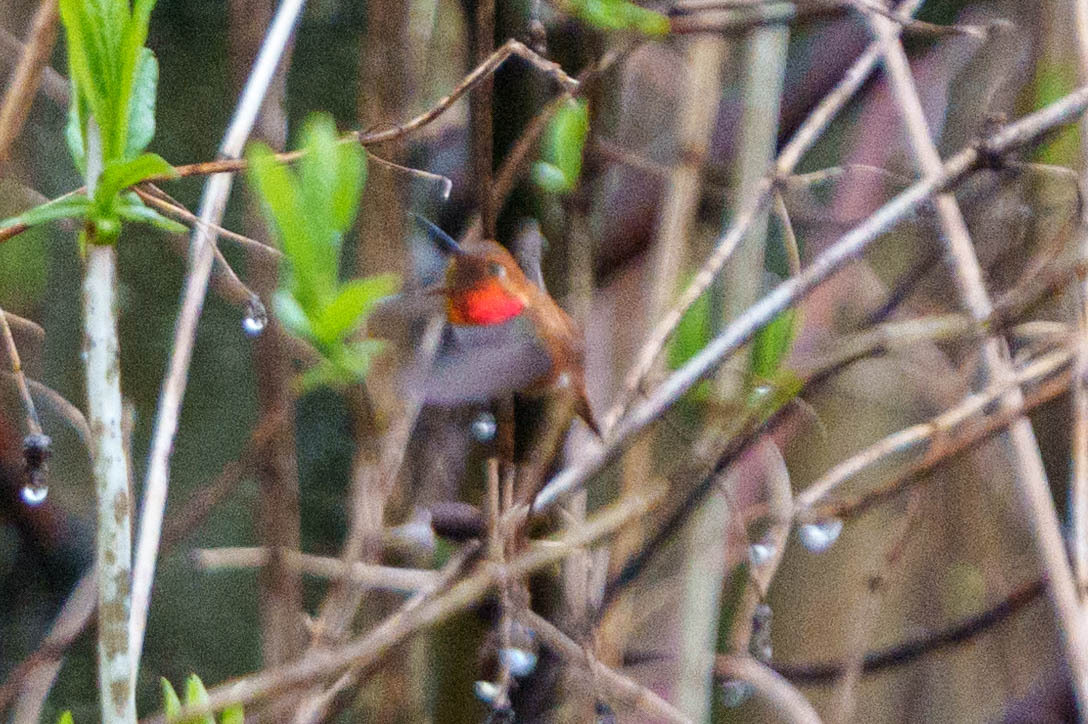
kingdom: Animalia
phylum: Chordata
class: Aves
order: Apodiformes
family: Trochilidae
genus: Selasphorus
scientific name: Selasphorus rufus
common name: Rufous hummingbird
